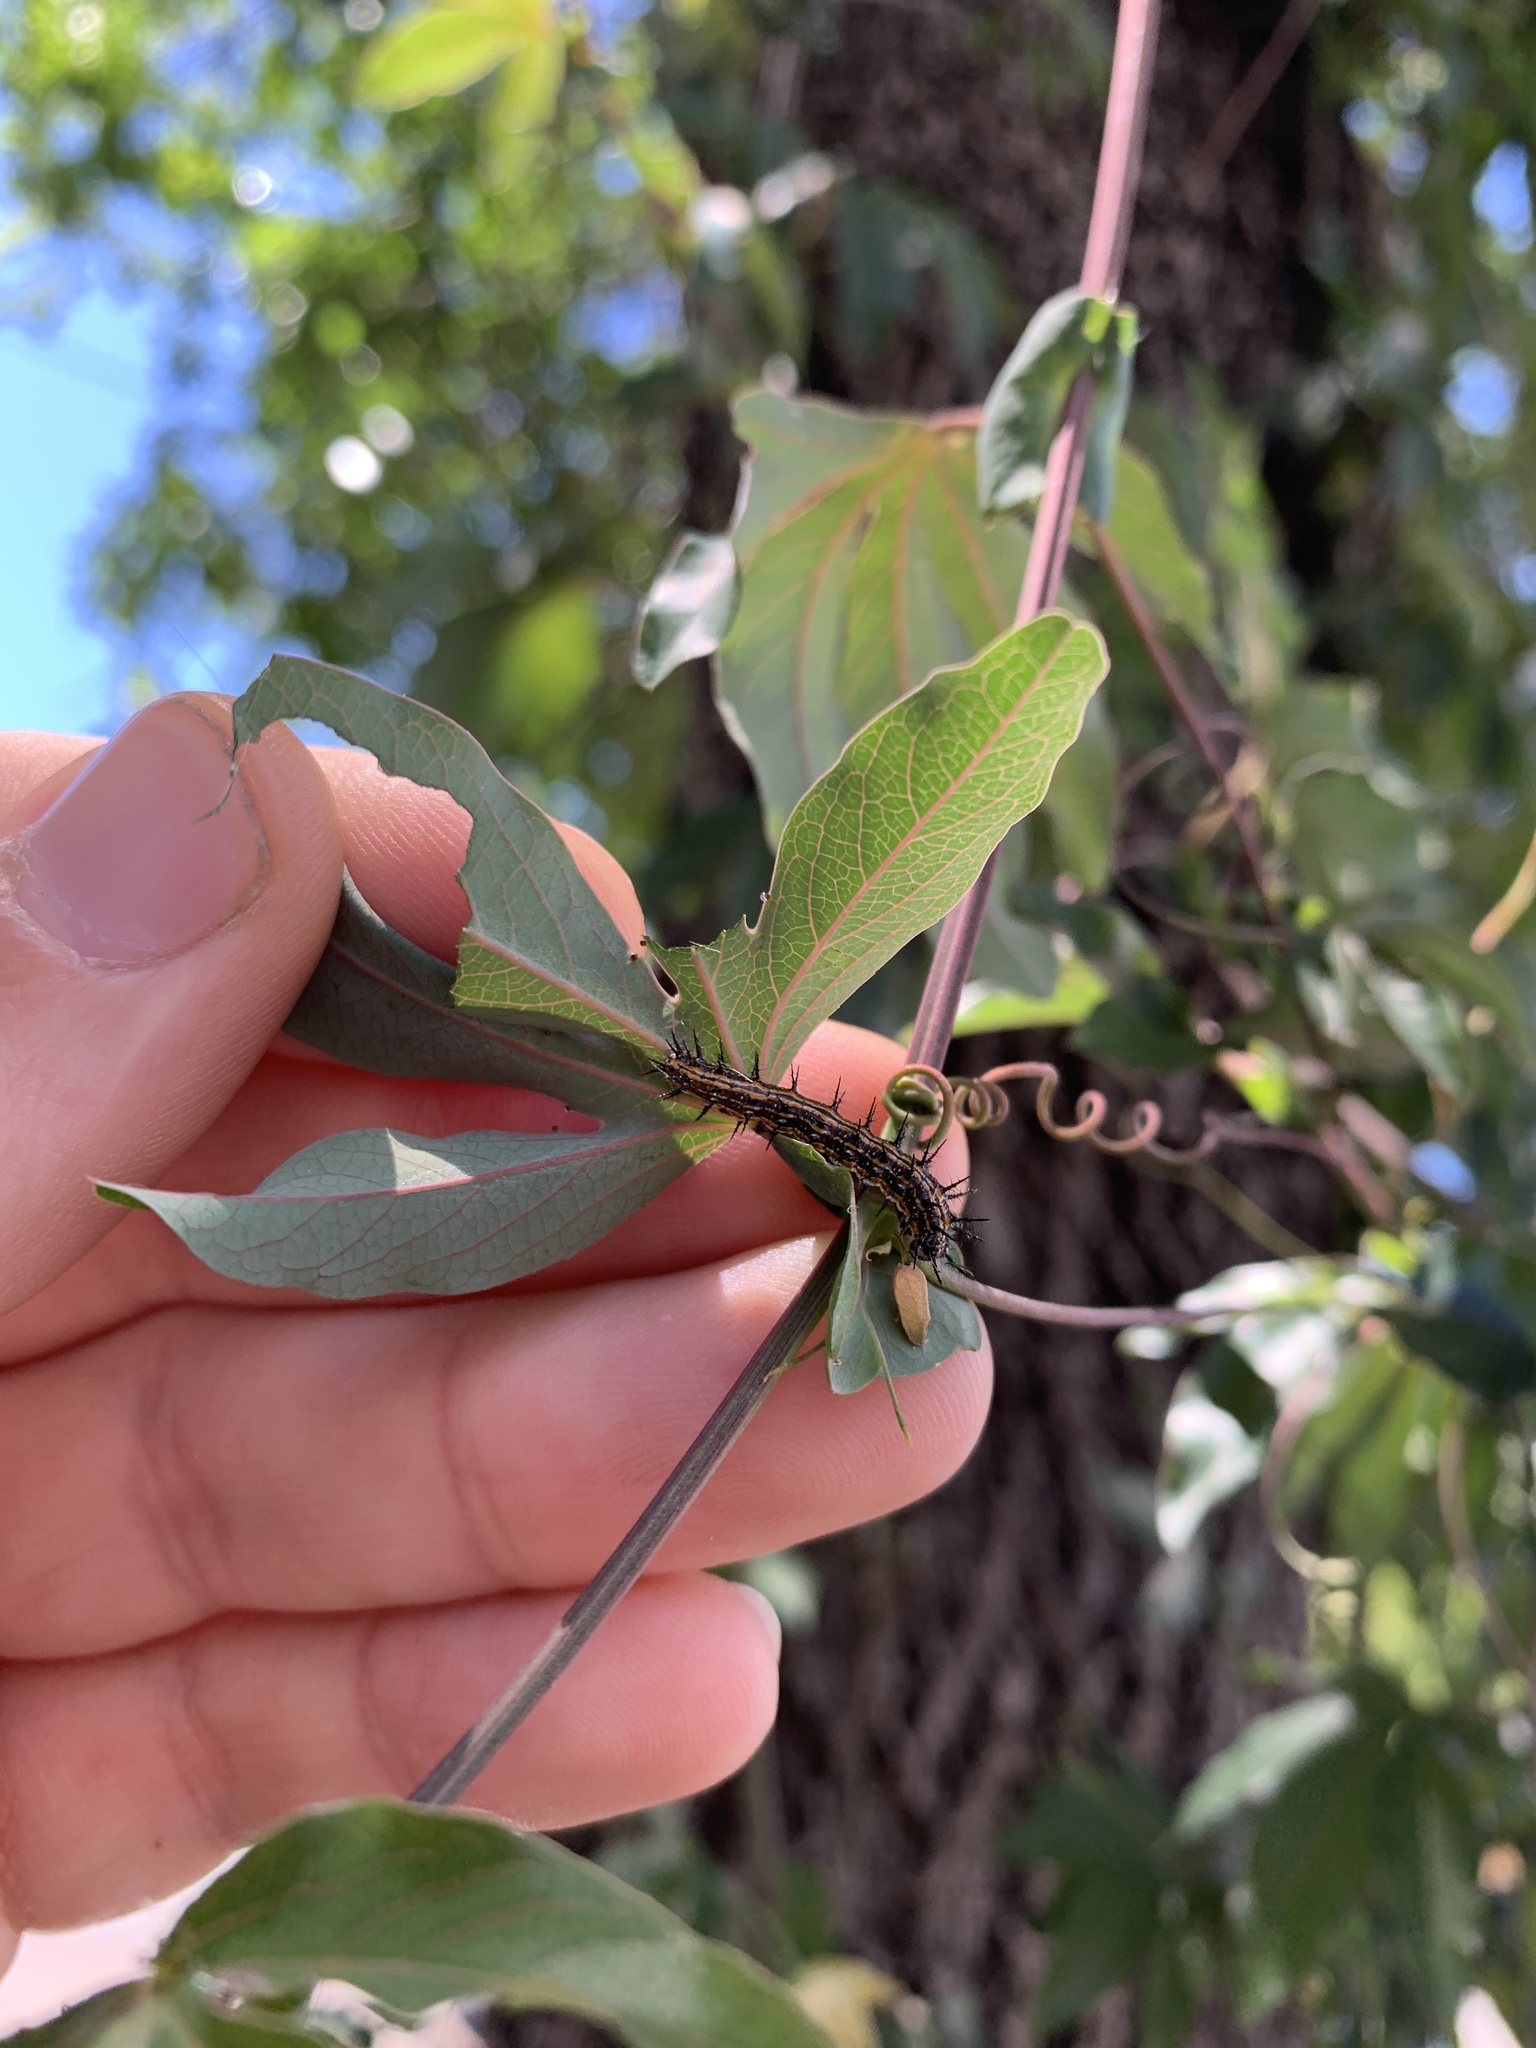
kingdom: Animalia
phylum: Arthropoda
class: Insecta
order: Lepidoptera
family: Nymphalidae
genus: Dione
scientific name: Dione vanillae
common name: Gulf fritillary
